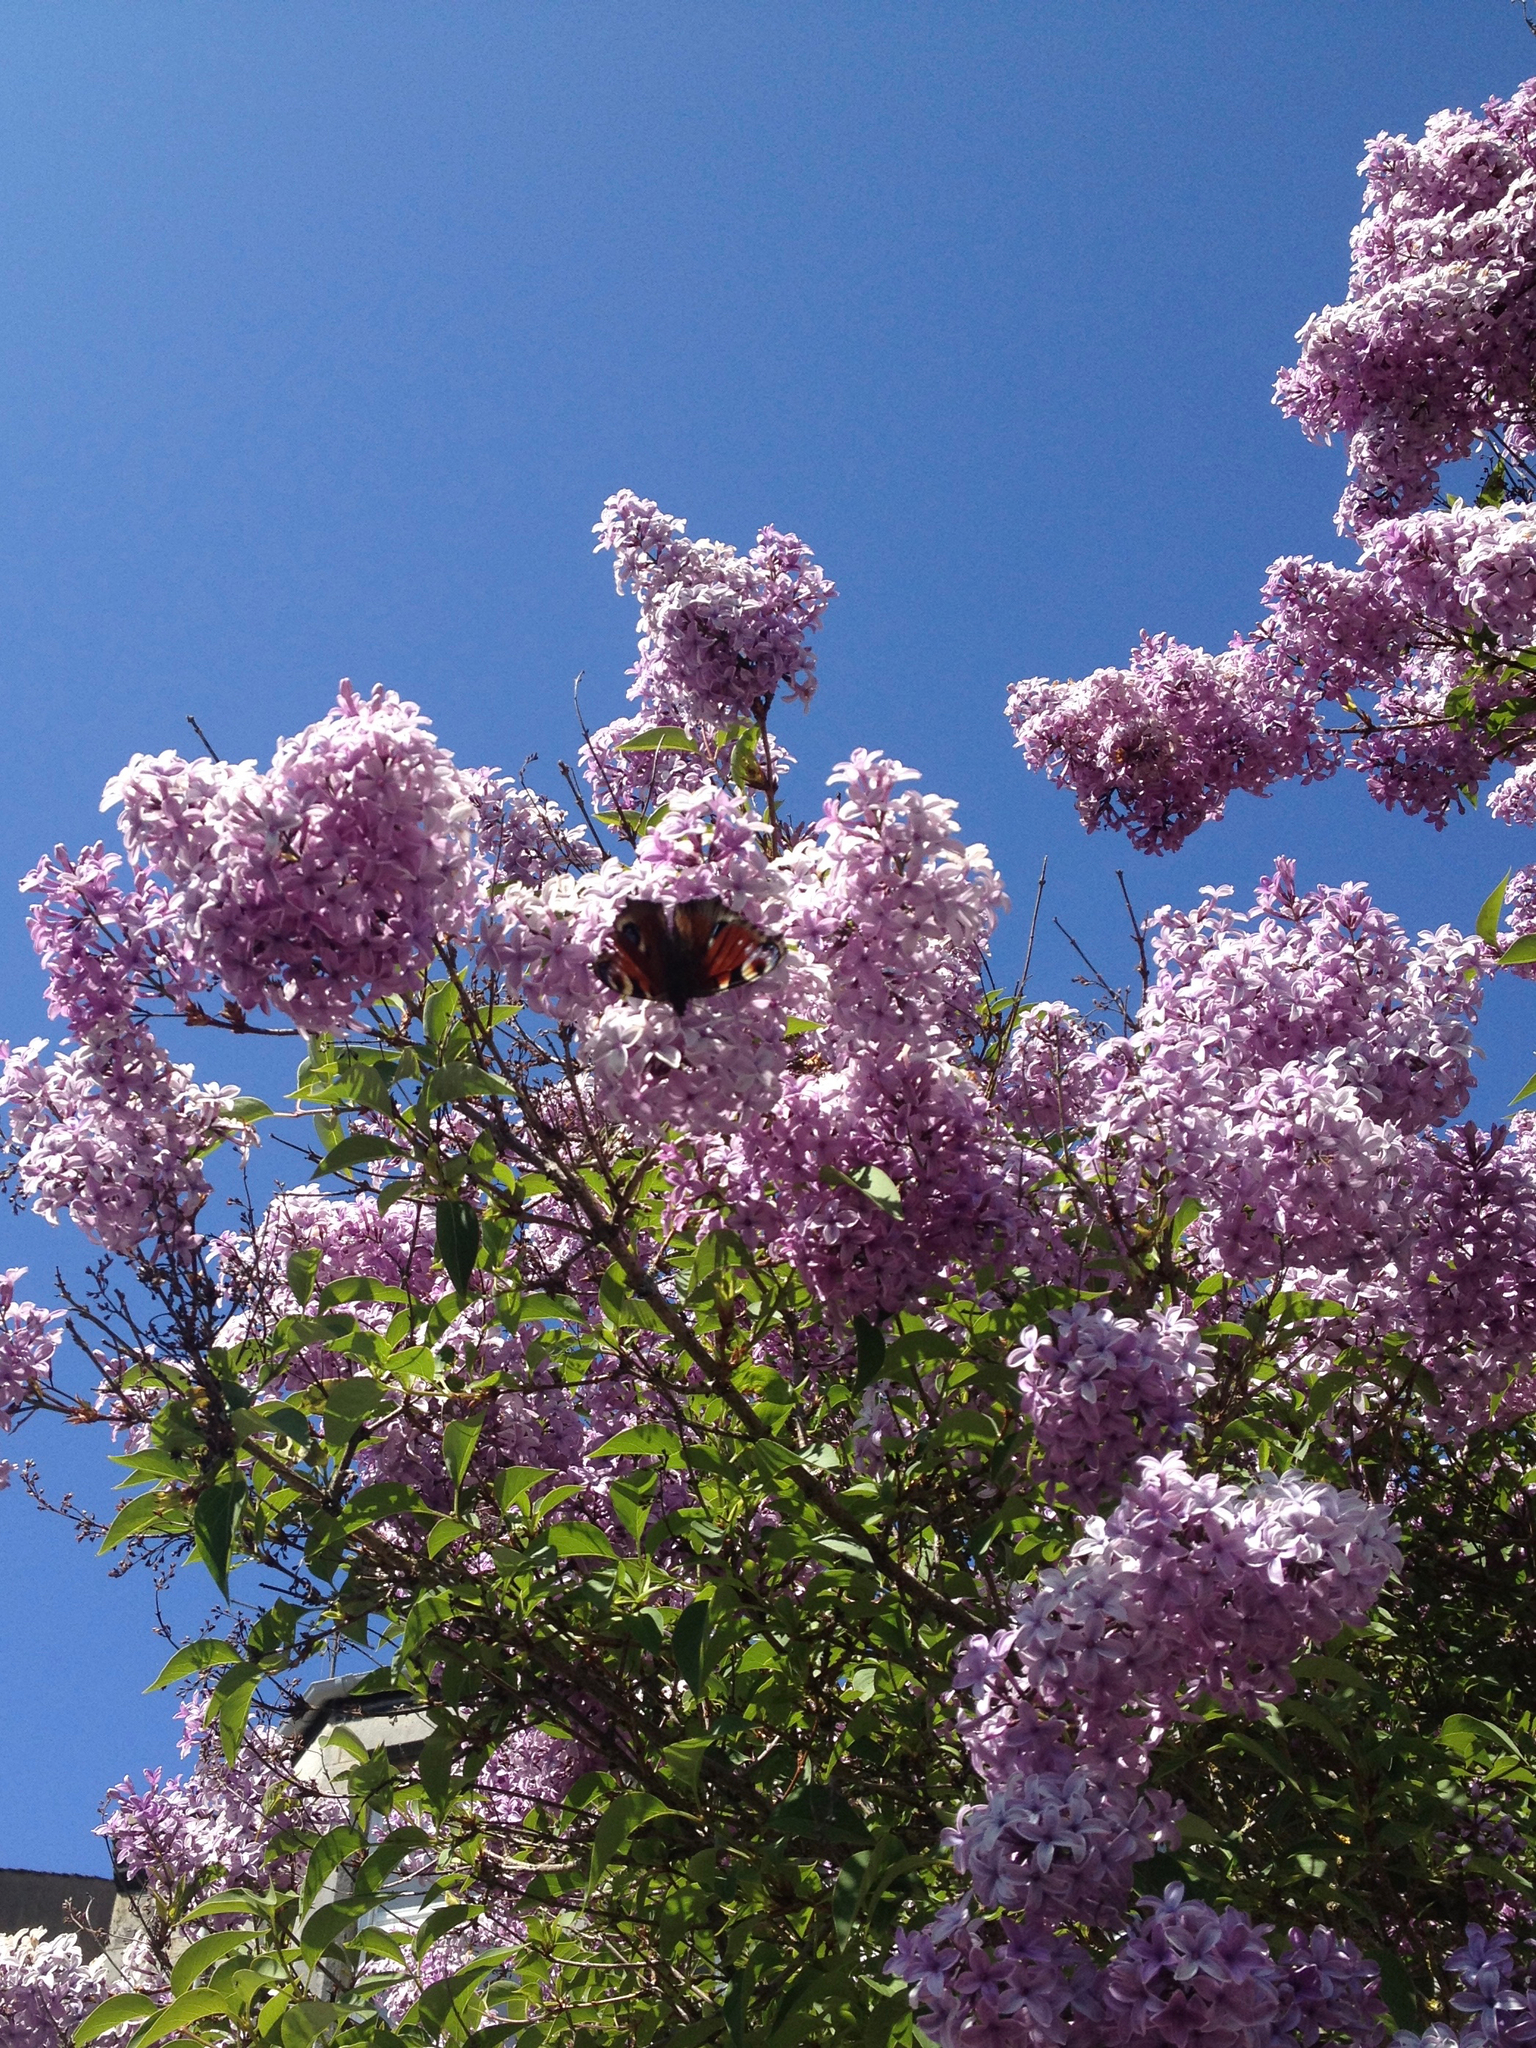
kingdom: Animalia
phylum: Arthropoda
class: Insecta
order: Lepidoptera
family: Nymphalidae
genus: Aglais
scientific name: Aglais io
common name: Peacock
